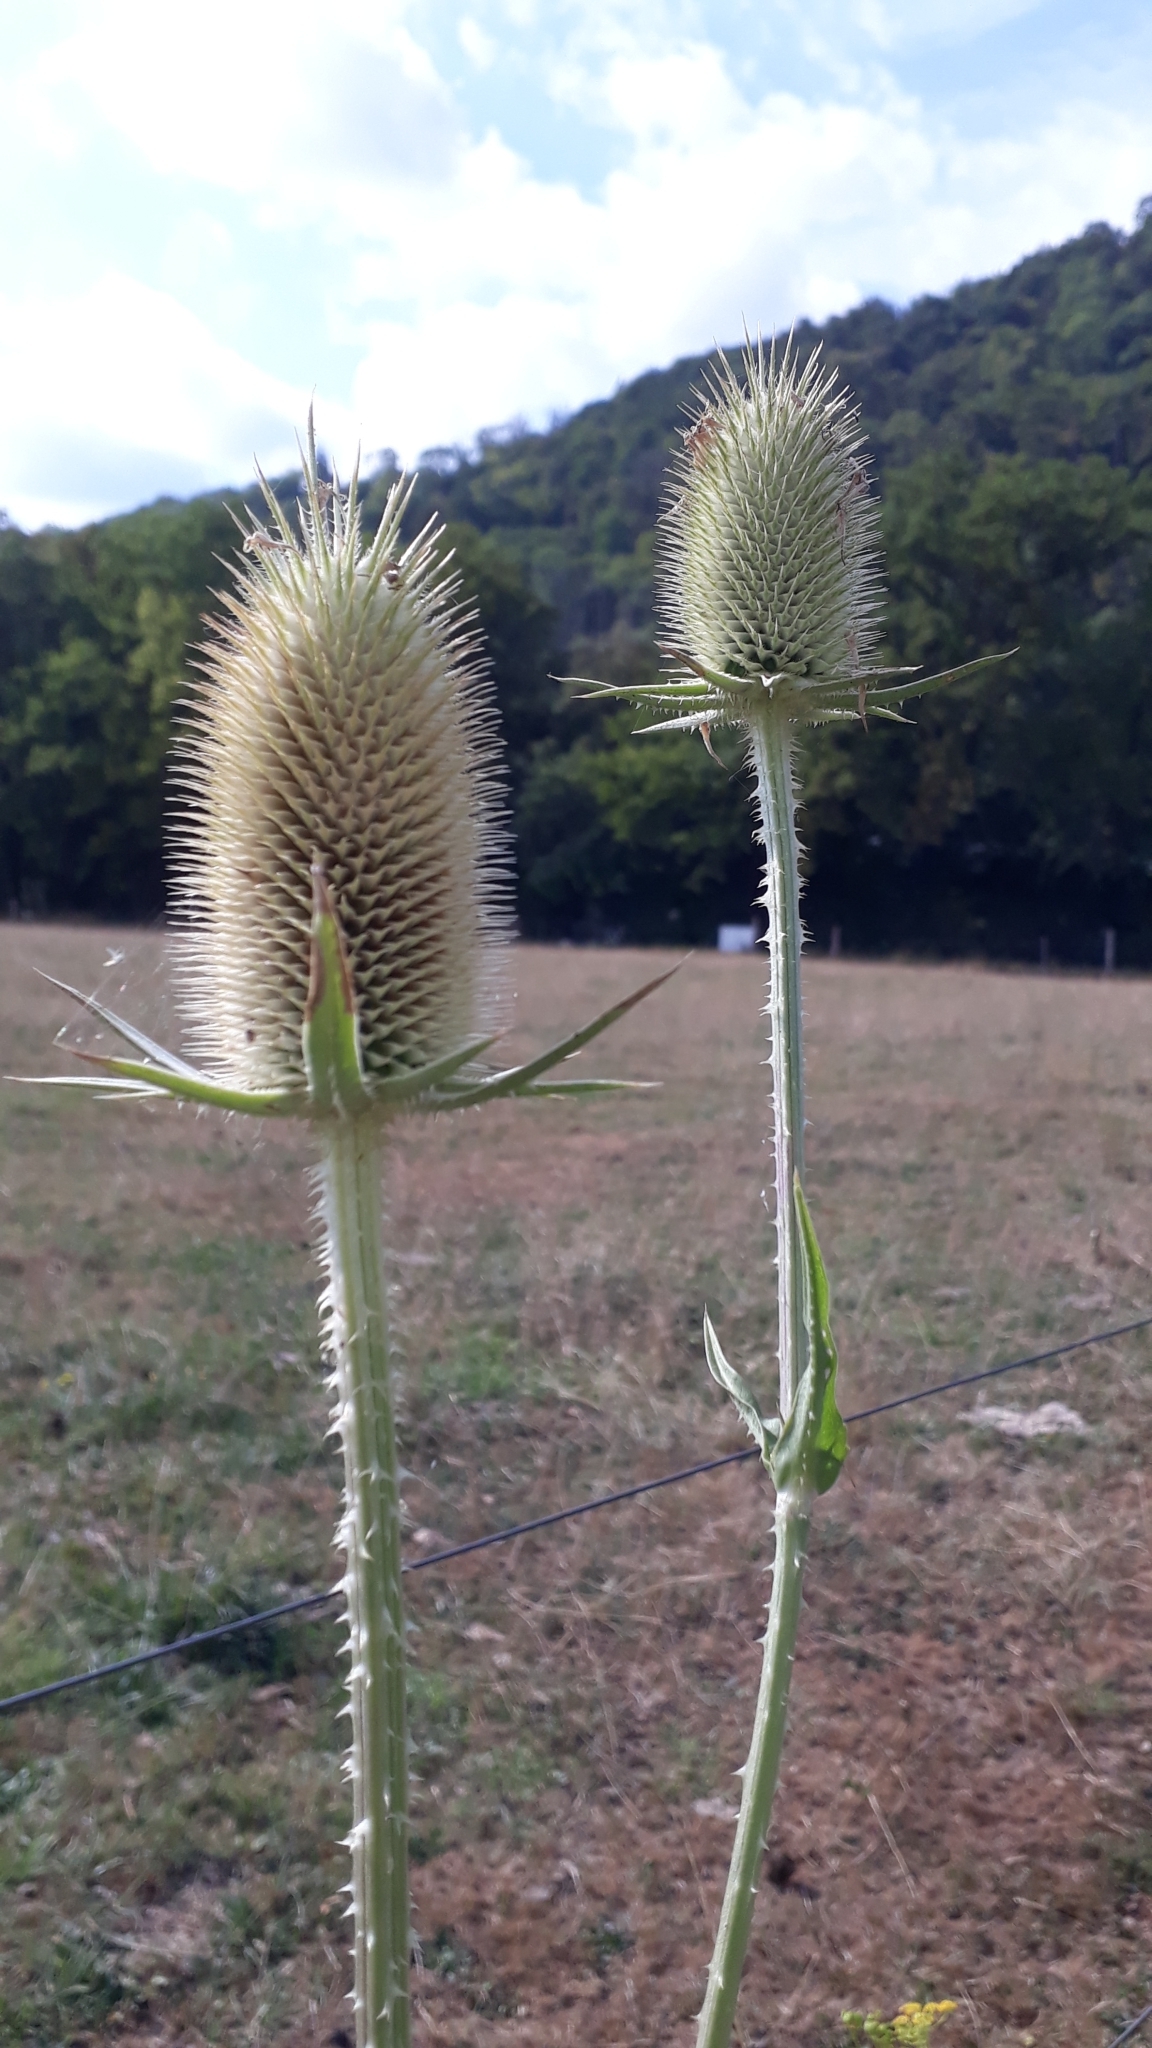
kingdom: Plantae
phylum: Tracheophyta
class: Magnoliopsida
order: Dipsacales
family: Caprifoliaceae
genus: Dipsacus
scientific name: Dipsacus laciniatus
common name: Cut-leaved teasel
